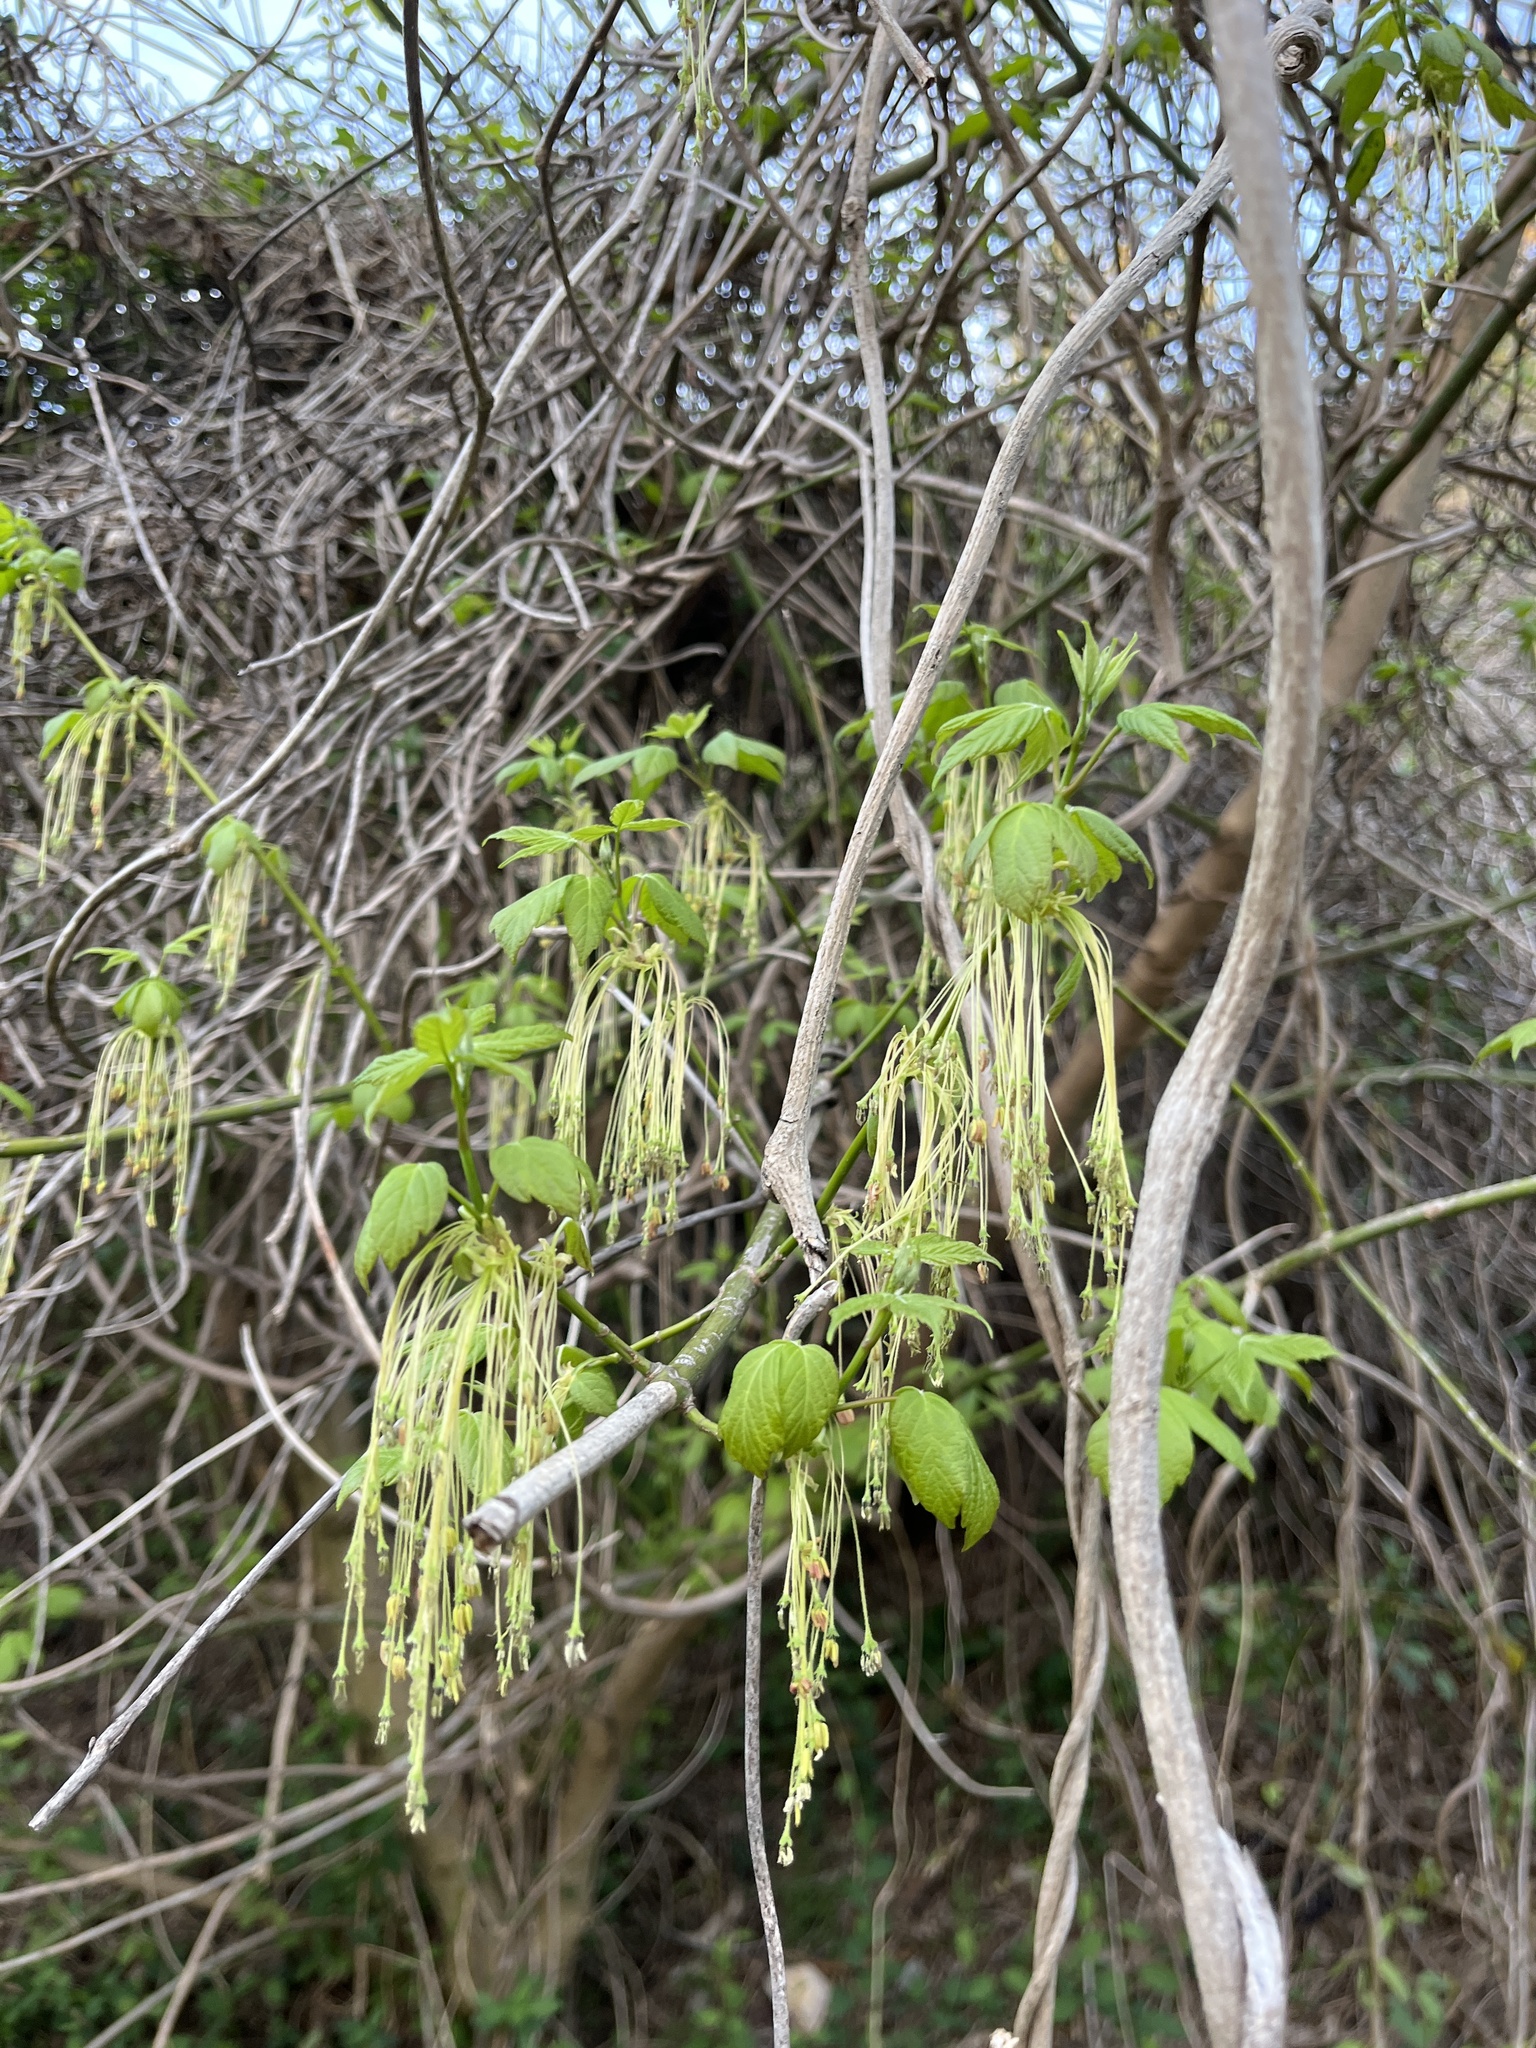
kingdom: Plantae
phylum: Tracheophyta
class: Magnoliopsida
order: Sapindales
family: Sapindaceae
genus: Acer
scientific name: Acer negundo
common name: Ashleaf maple
